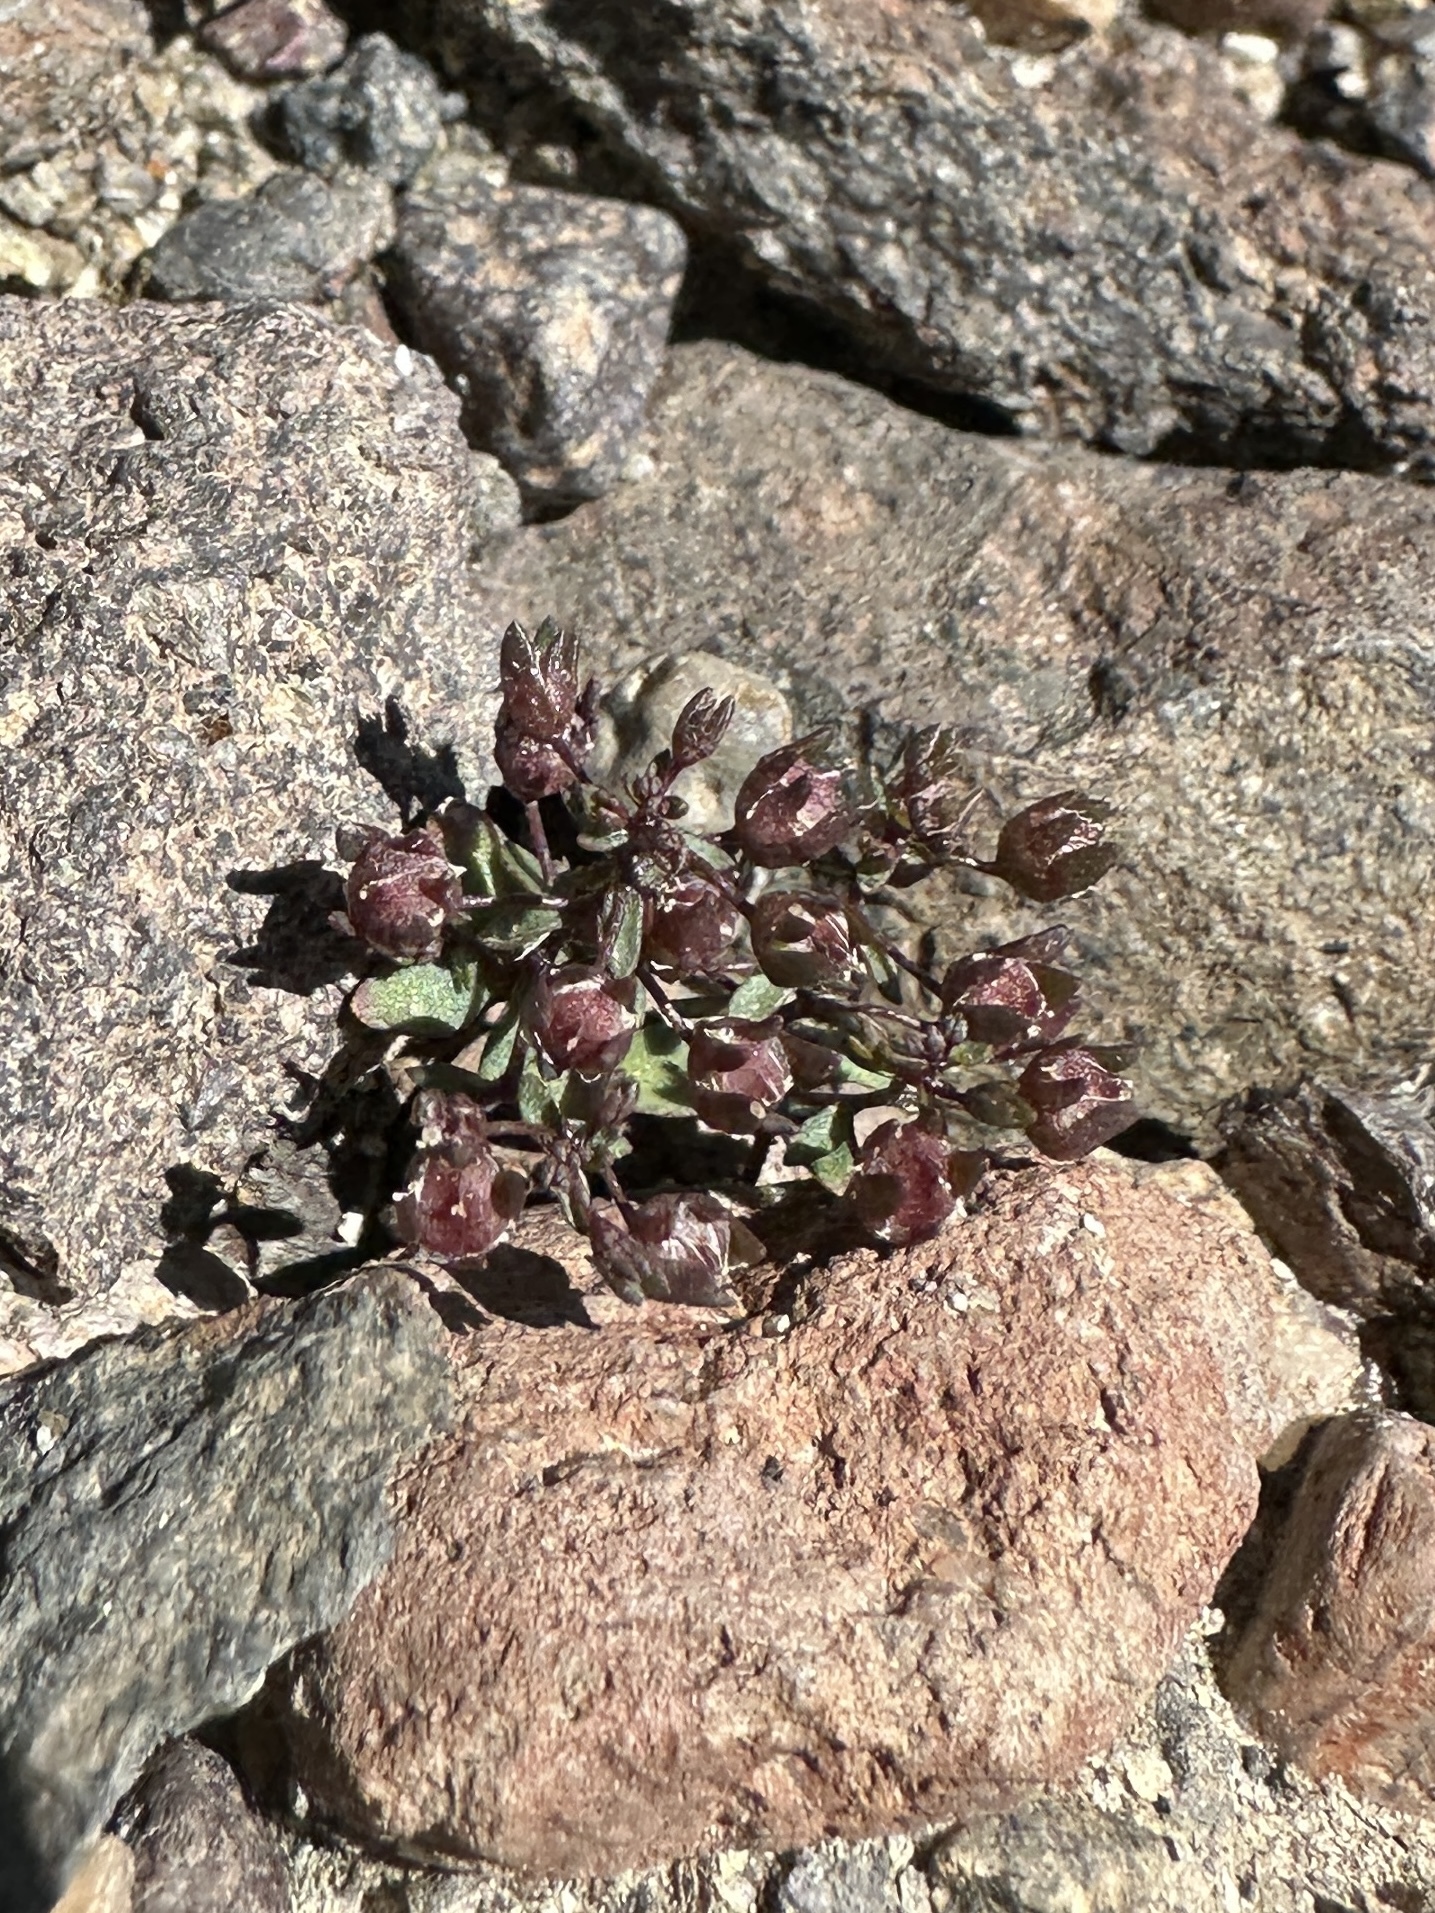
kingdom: Plantae
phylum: Tracheophyta
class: Magnoliopsida
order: Asterales
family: Campanulaceae
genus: Nemacladus
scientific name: Nemacladus rigidus
